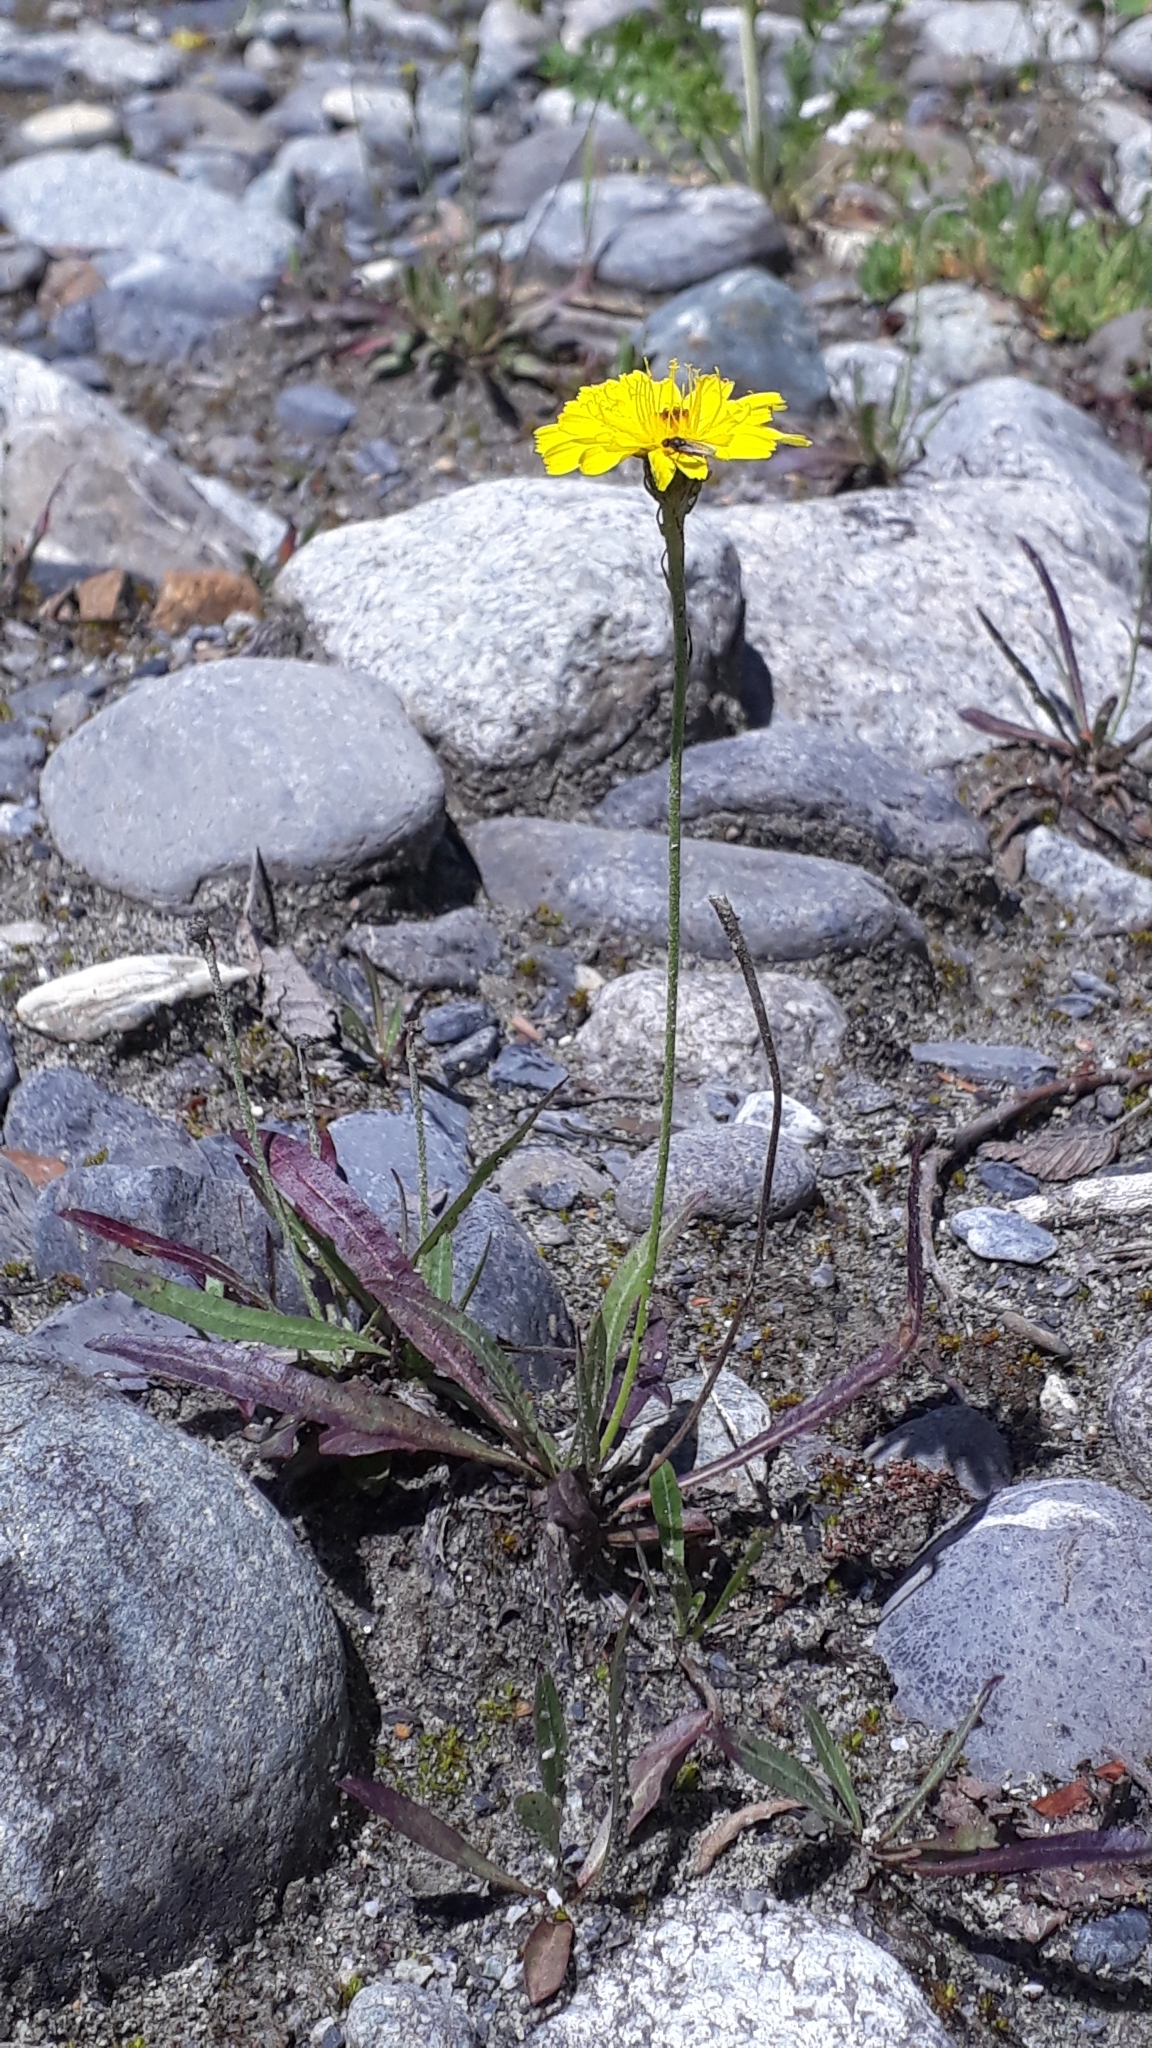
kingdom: Plantae
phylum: Tracheophyta
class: Magnoliopsida
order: Asterales
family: Asteraceae
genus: Tolpis
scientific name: Tolpis staticifolia
